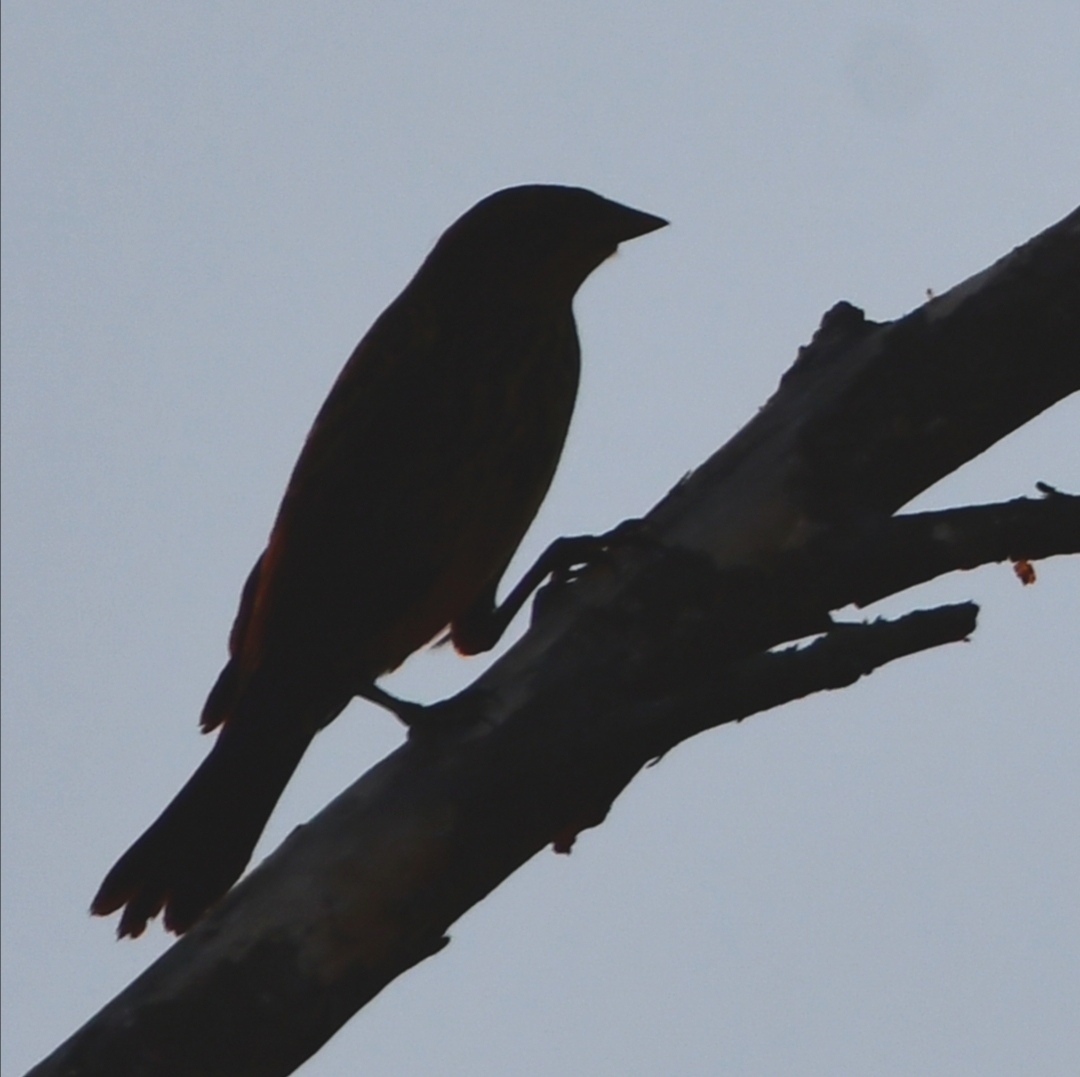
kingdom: Animalia
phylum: Chordata
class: Aves
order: Passeriformes
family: Icteridae
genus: Quiscalus
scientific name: Quiscalus quiscula
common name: Common grackle
